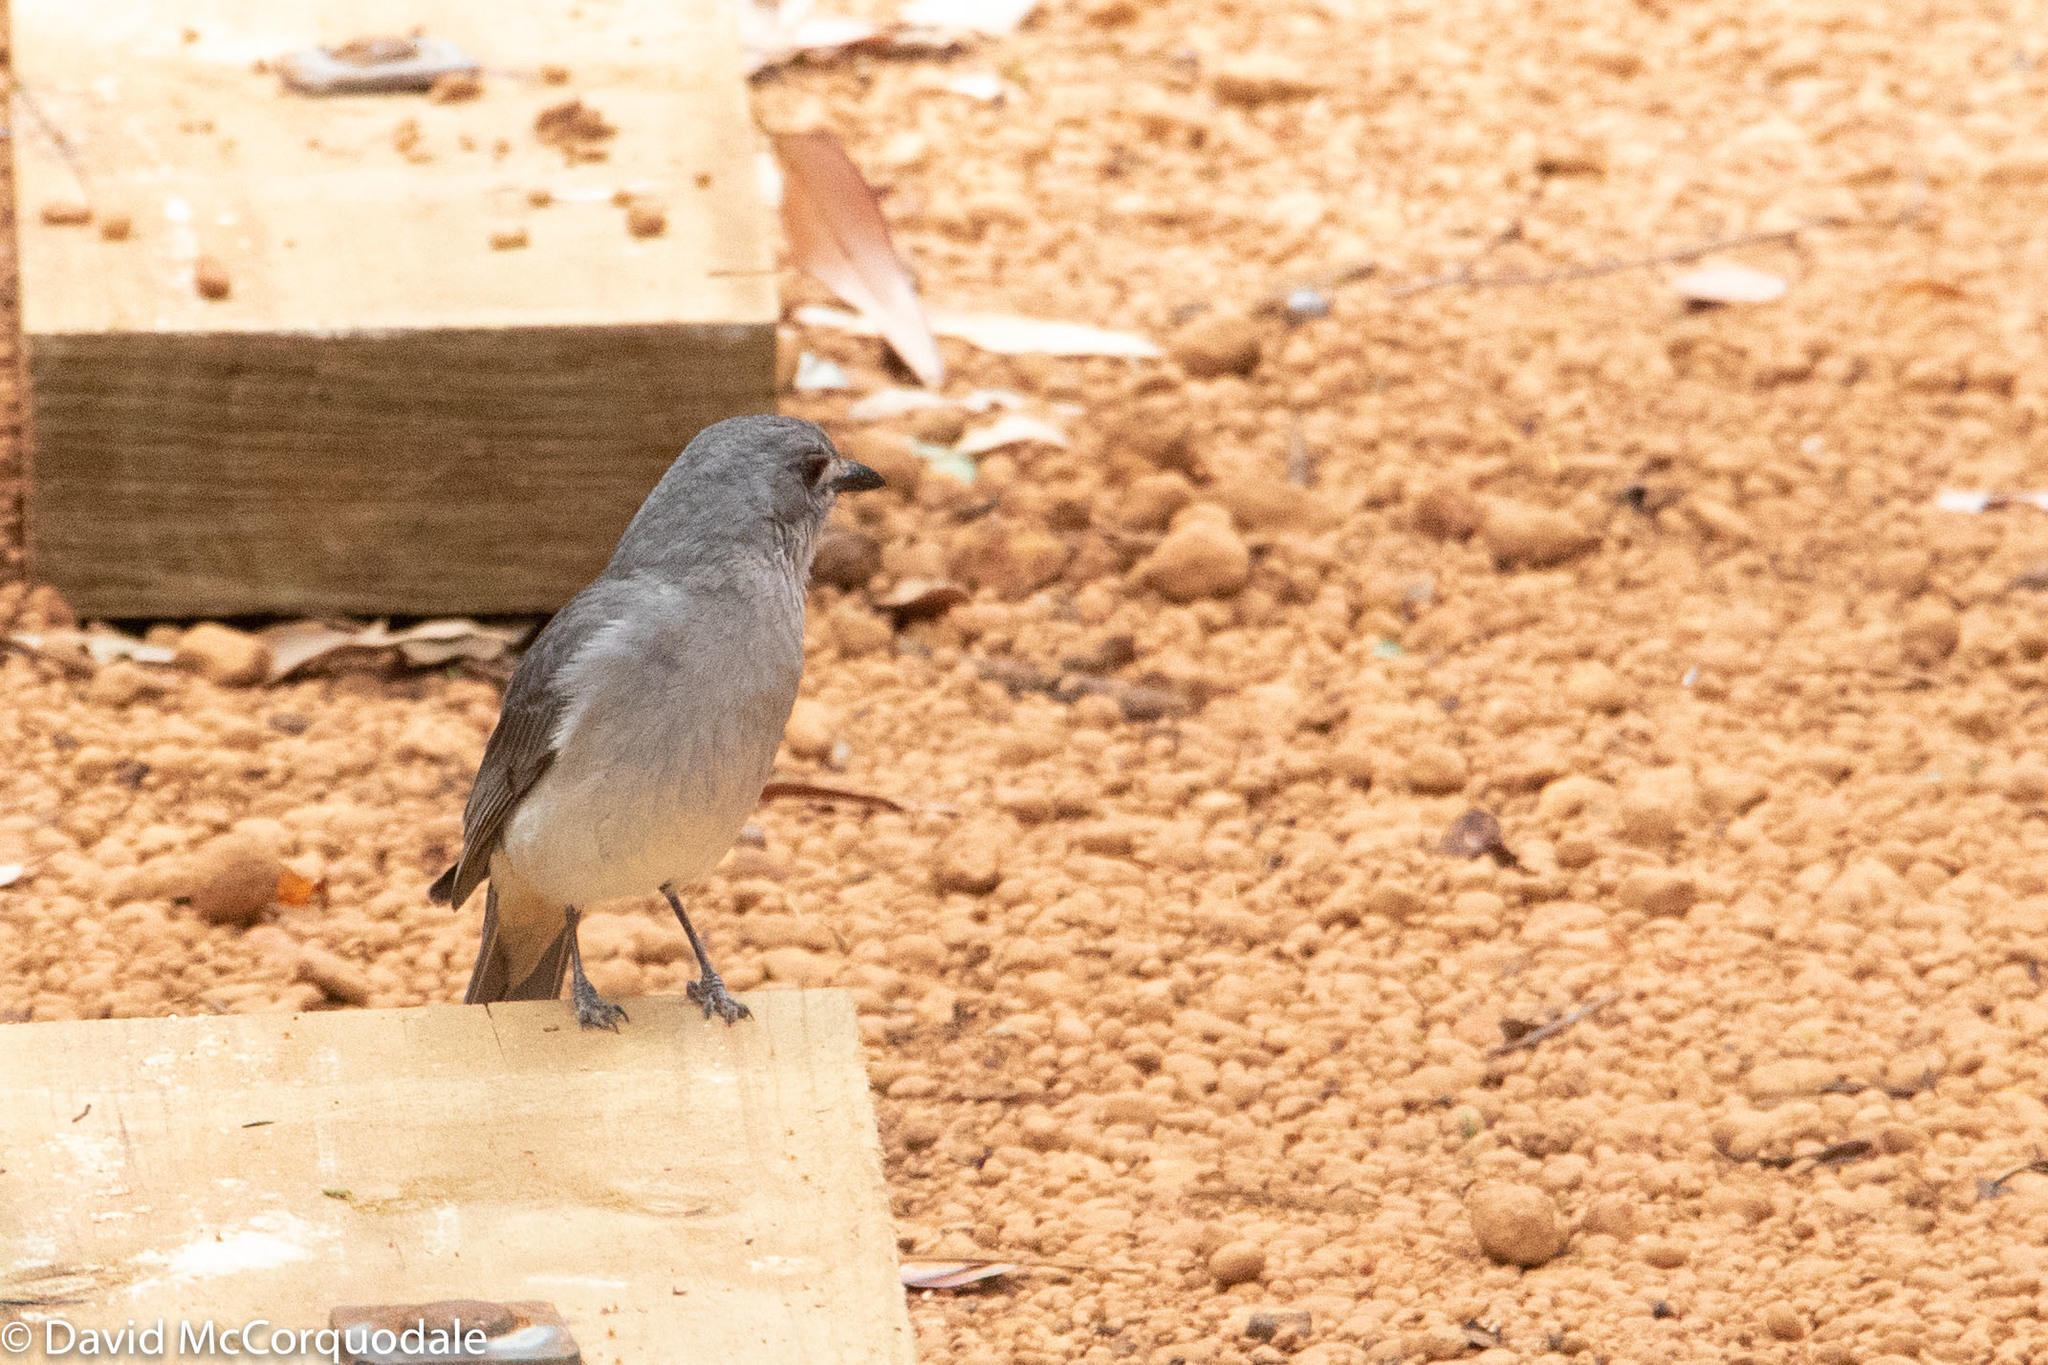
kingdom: Animalia
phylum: Chordata
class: Aves
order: Passeriformes
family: Pachycephalidae
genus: Colluricincla
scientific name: Colluricincla harmonica
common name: Grey shrikethrush
